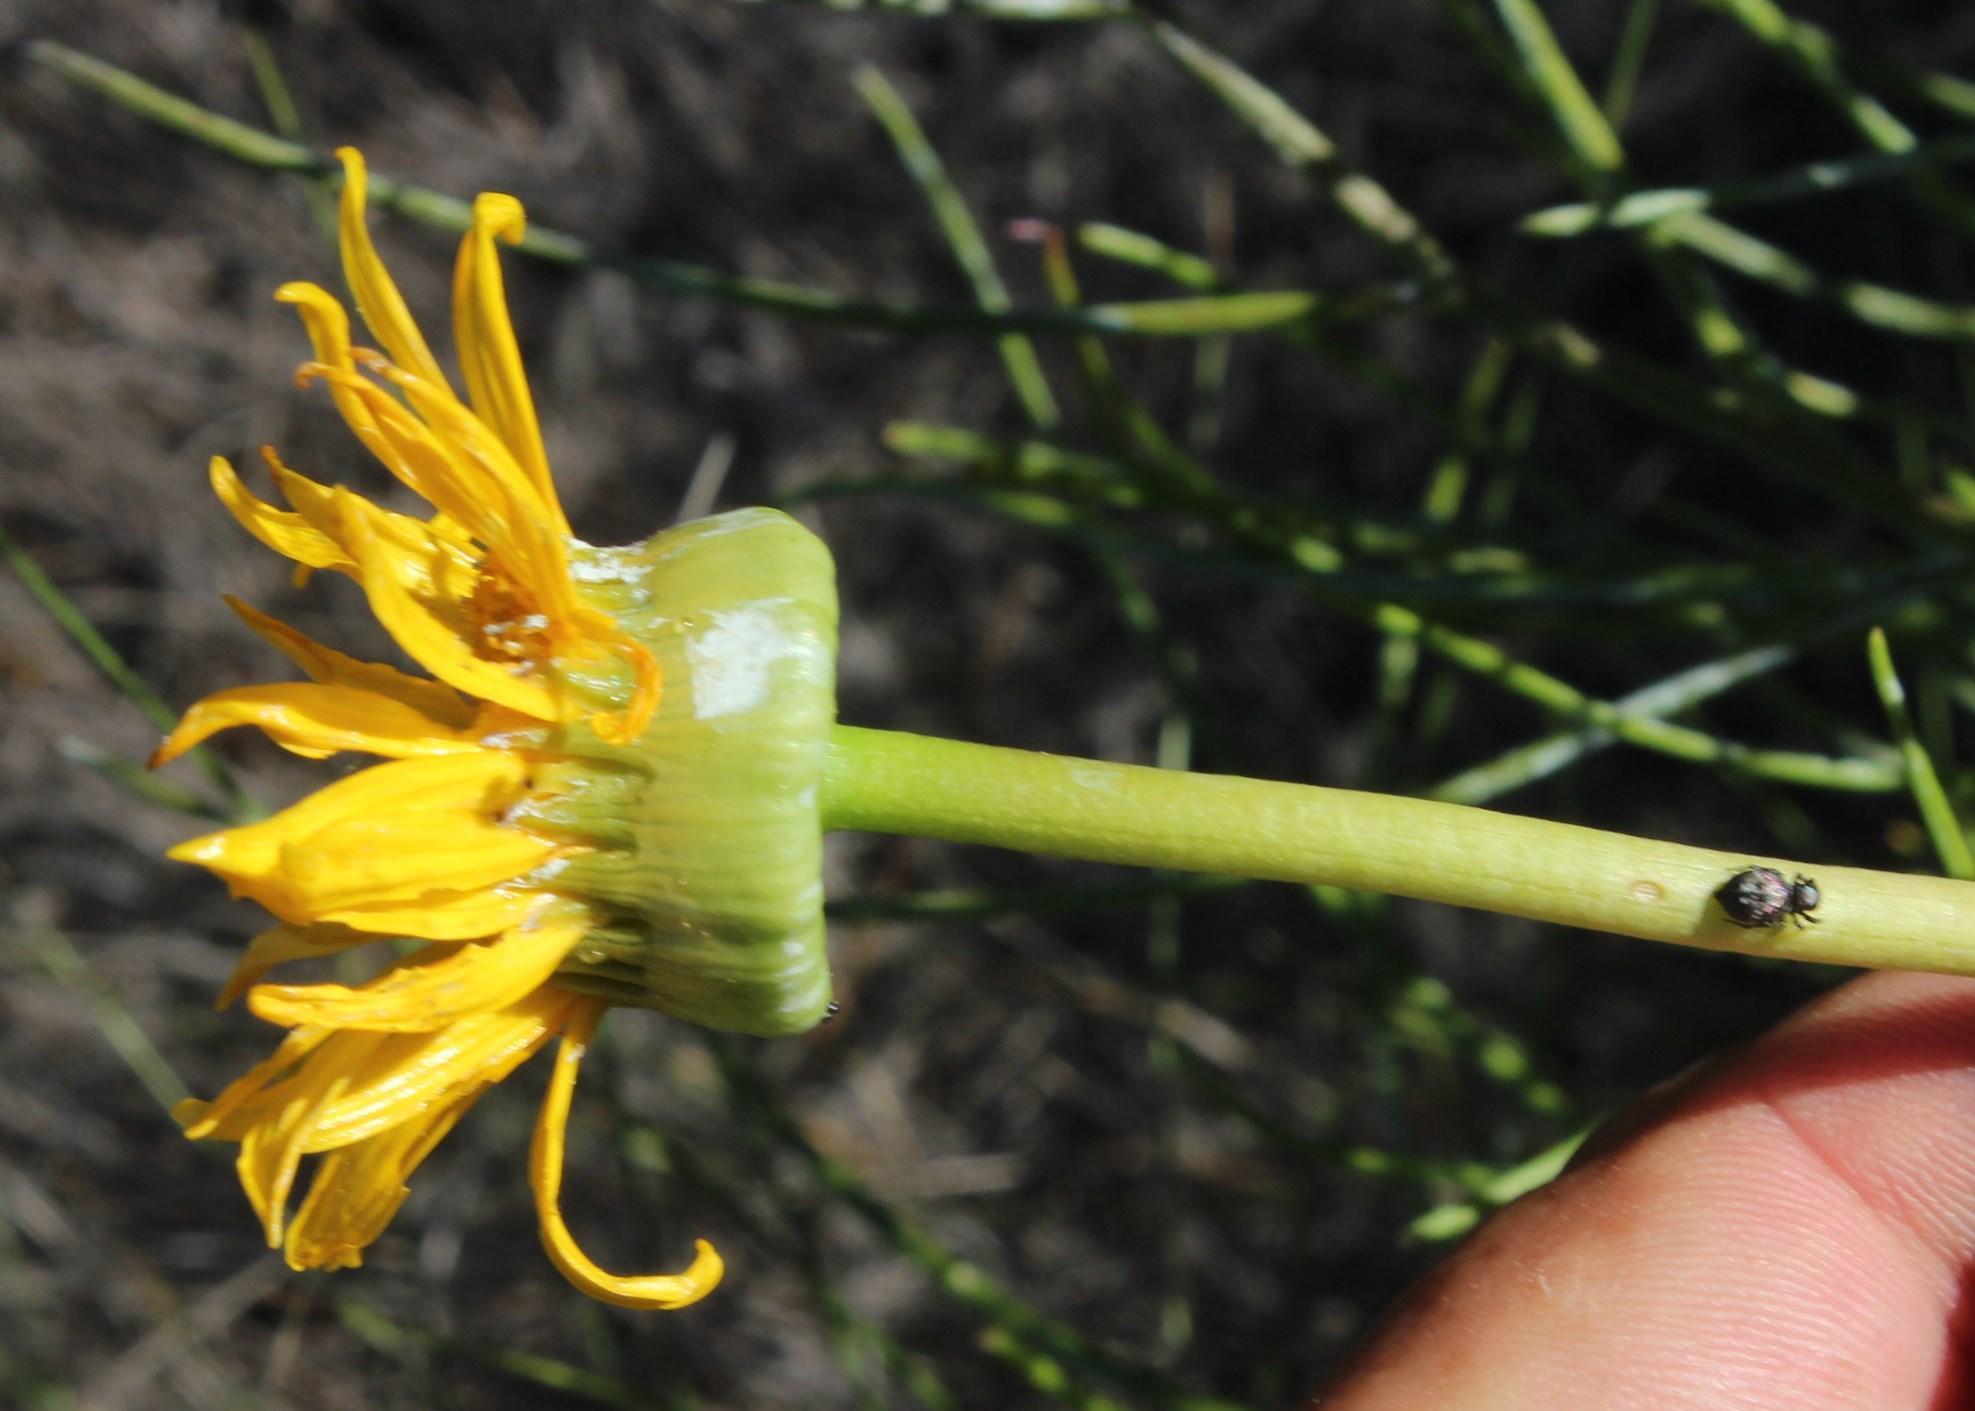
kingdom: Plantae
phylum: Tracheophyta
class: Magnoliopsida
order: Asterales
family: Asteraceae
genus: Euryops
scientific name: Euryops speciosissimus
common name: Clanwilliam daisy
